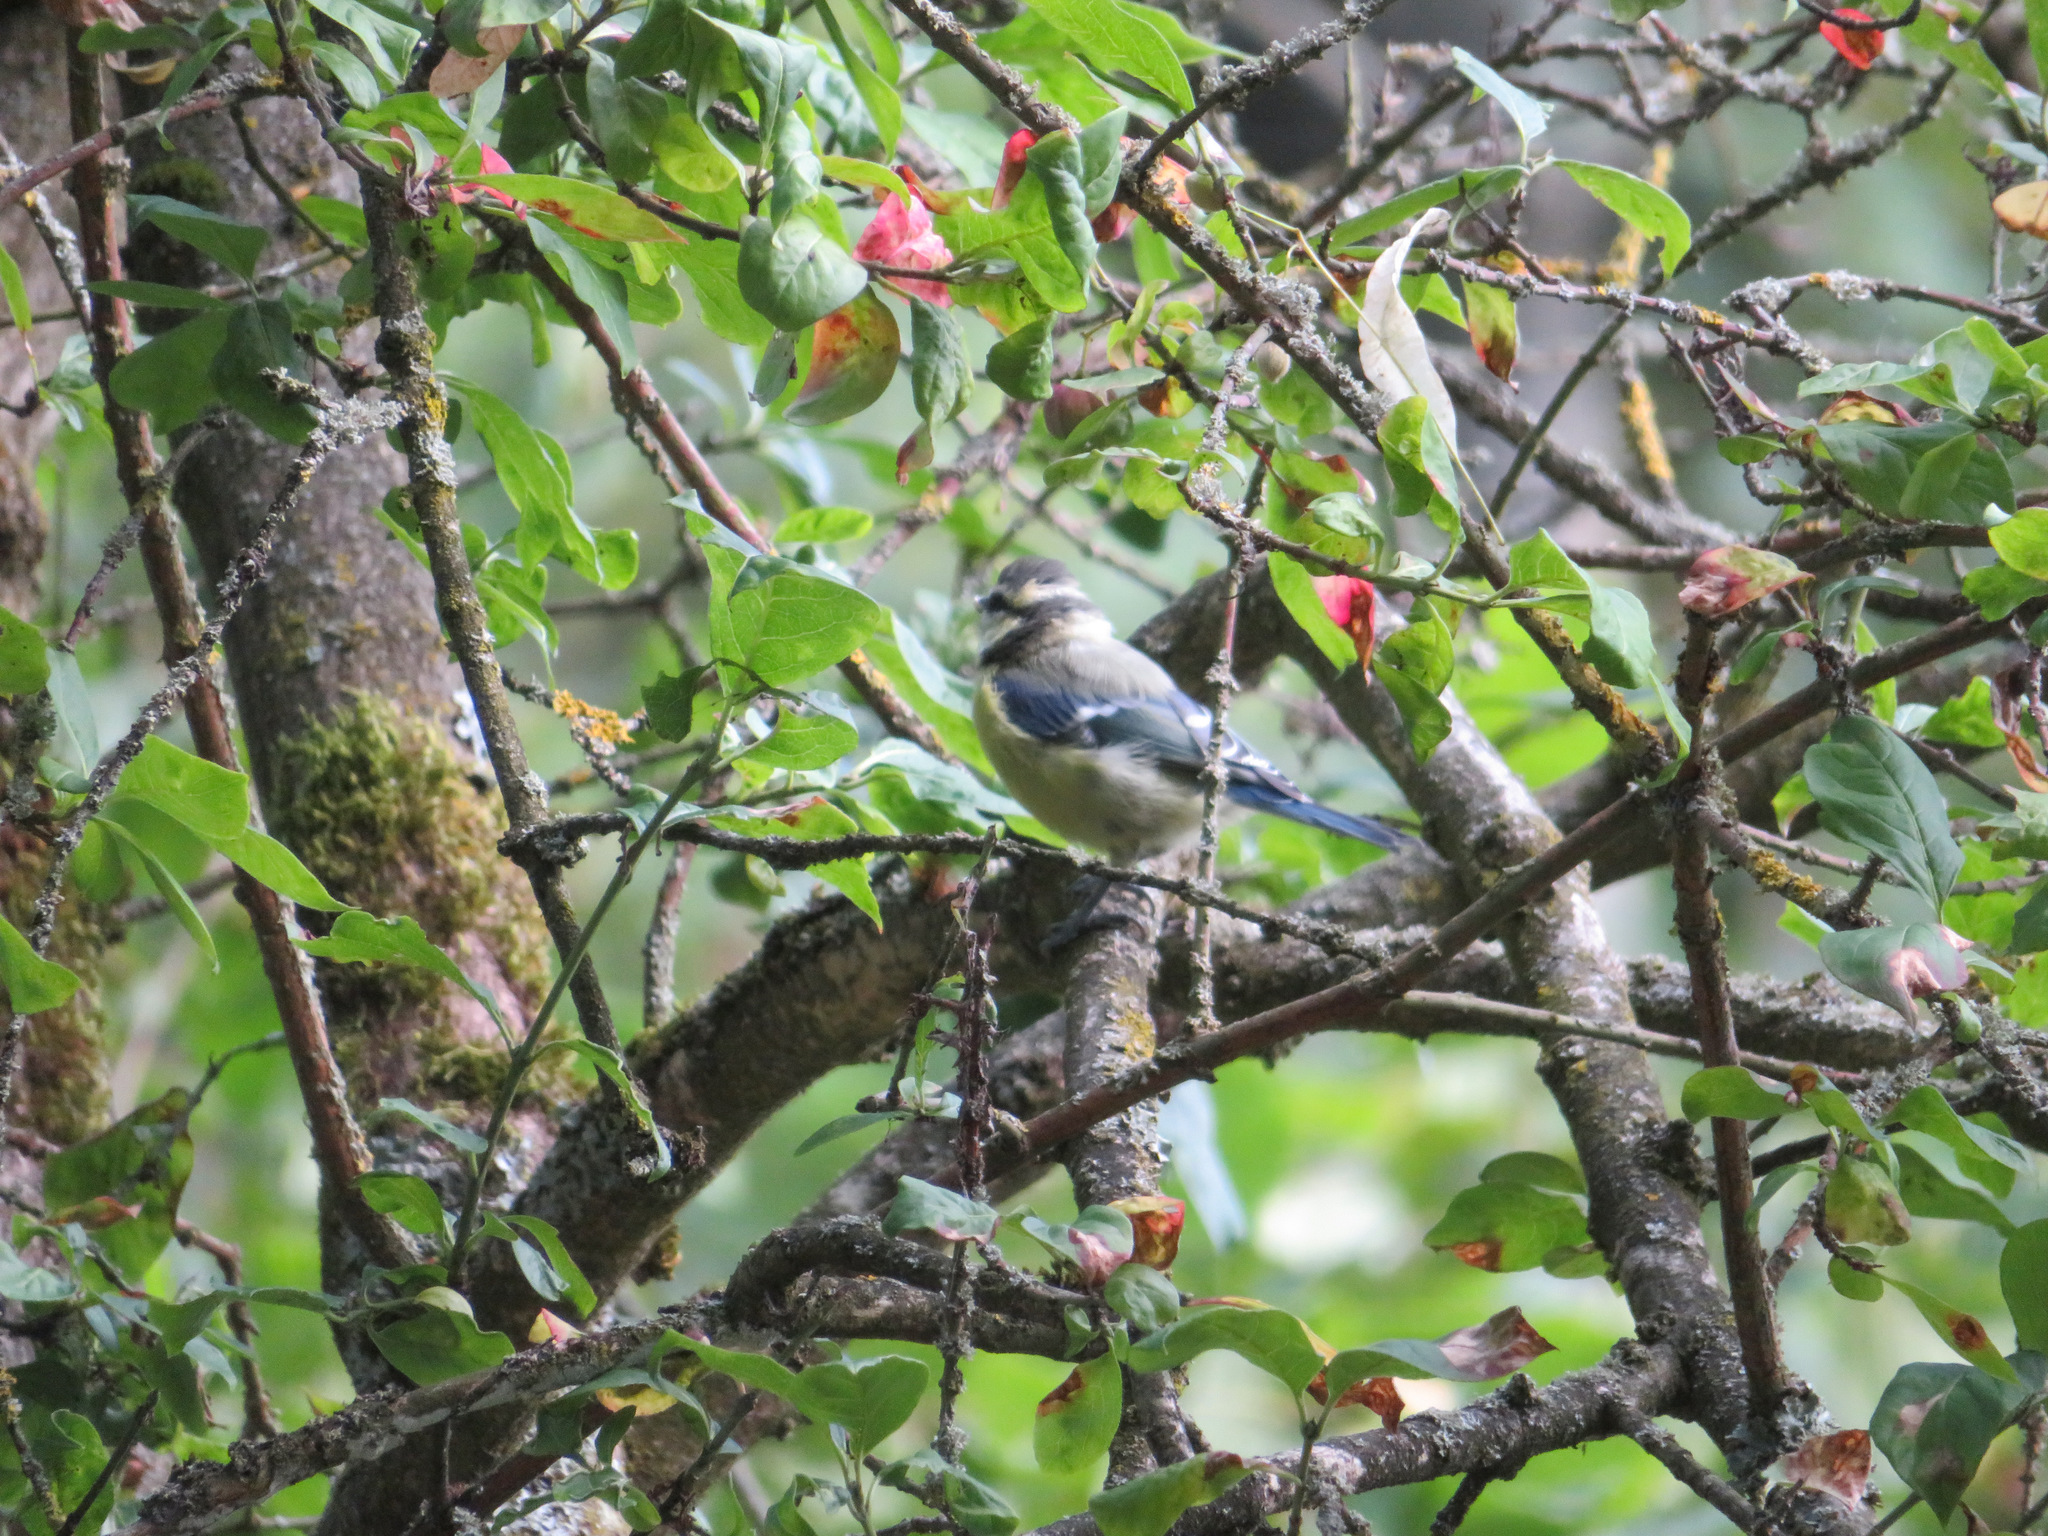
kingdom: Animalia
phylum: Chordata
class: Aves
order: Passeriformes
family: Paridae
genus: Cyanistes
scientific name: Cyanistes caeruleus
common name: Eurasian blue tit
